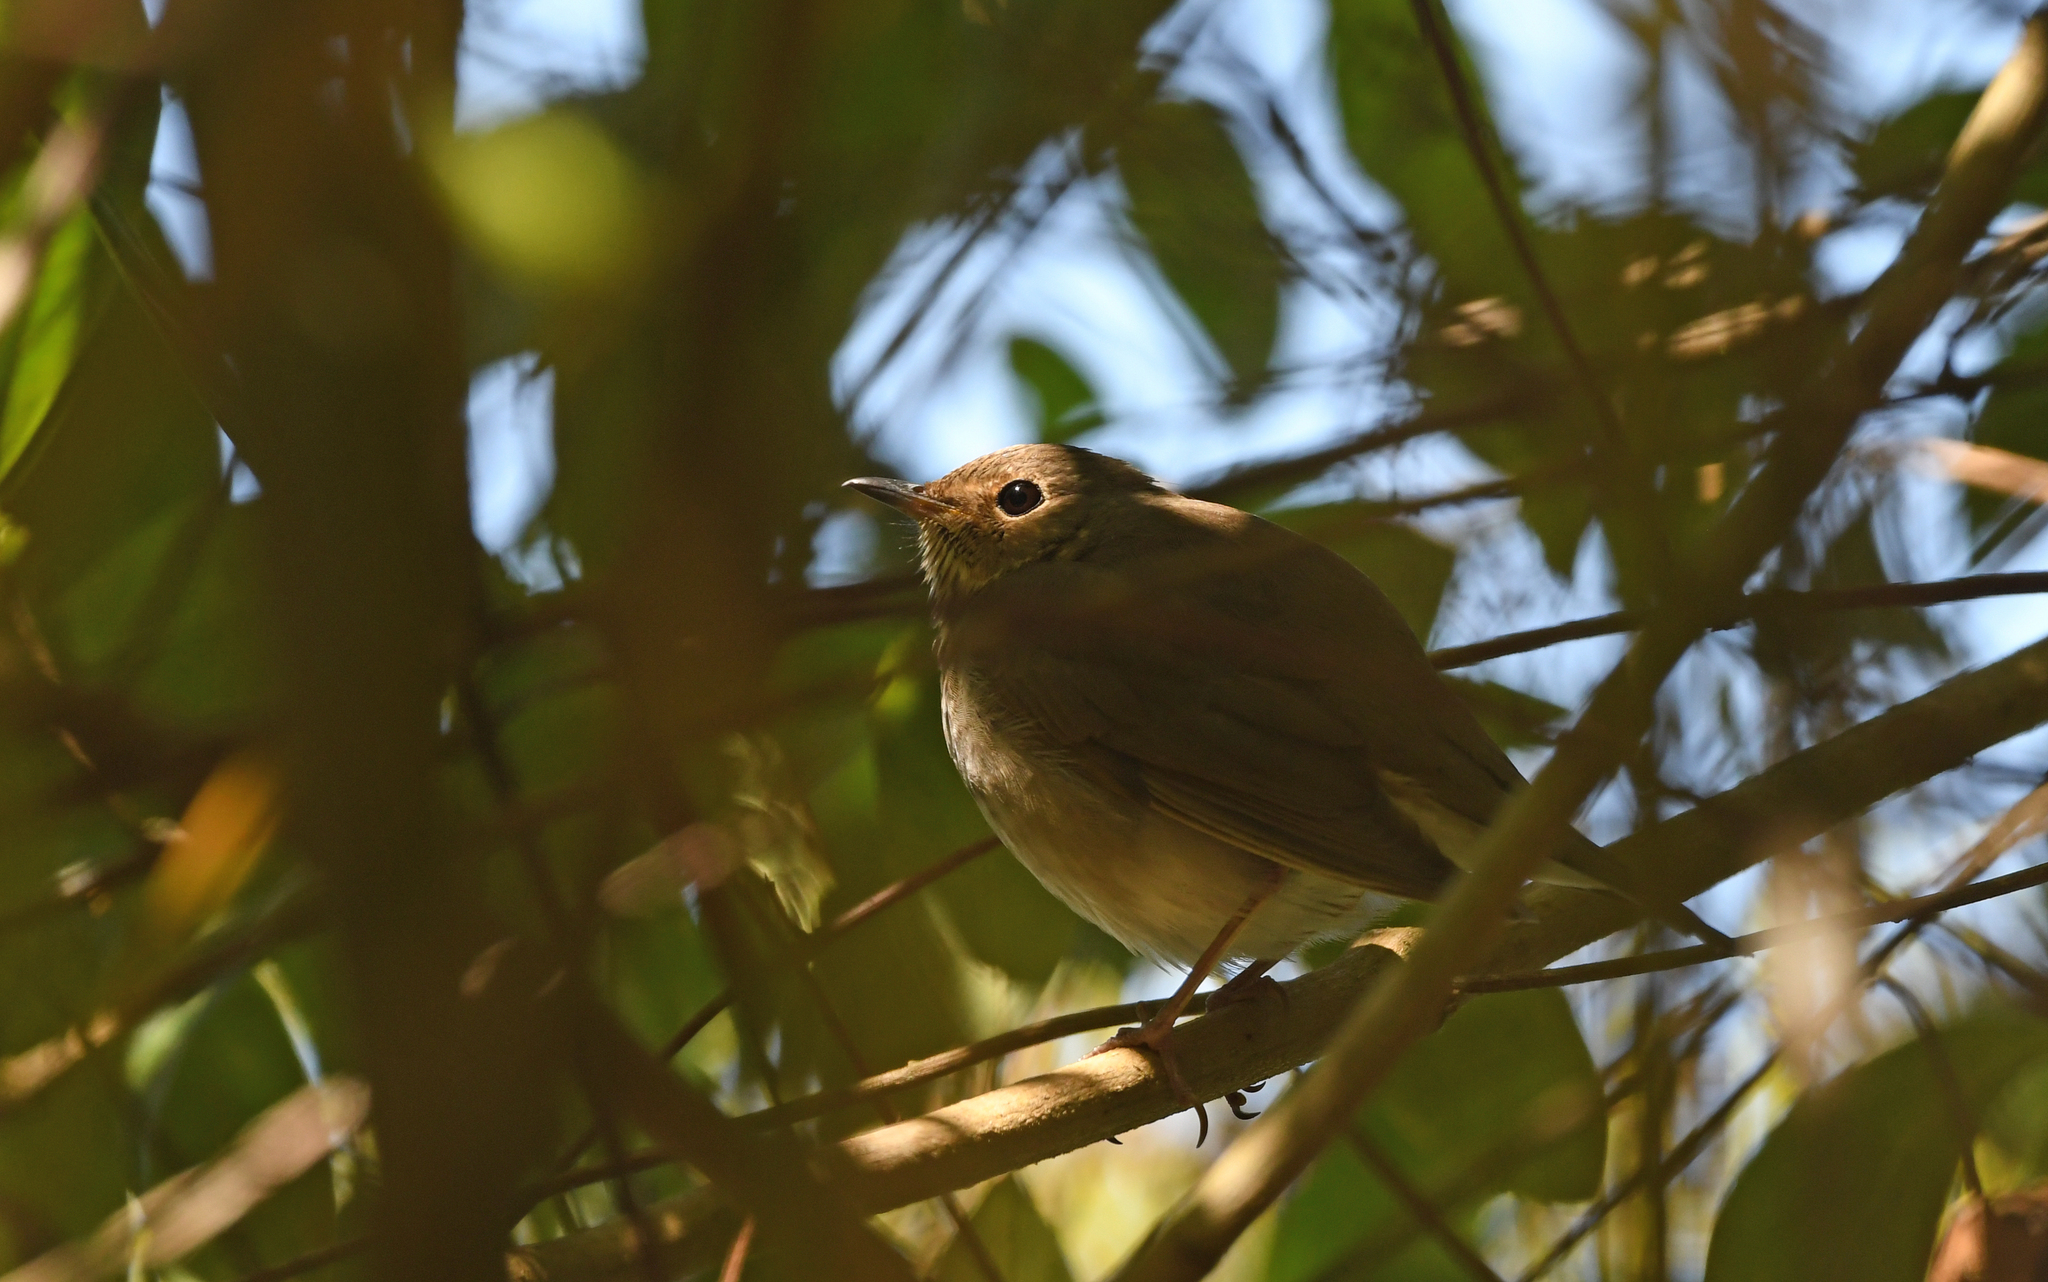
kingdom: Animalia
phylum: Chordata
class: Aves
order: Passeriformes
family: Turdidae
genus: Catharus
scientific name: Catharus ustulatus
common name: Swainson's thrush
